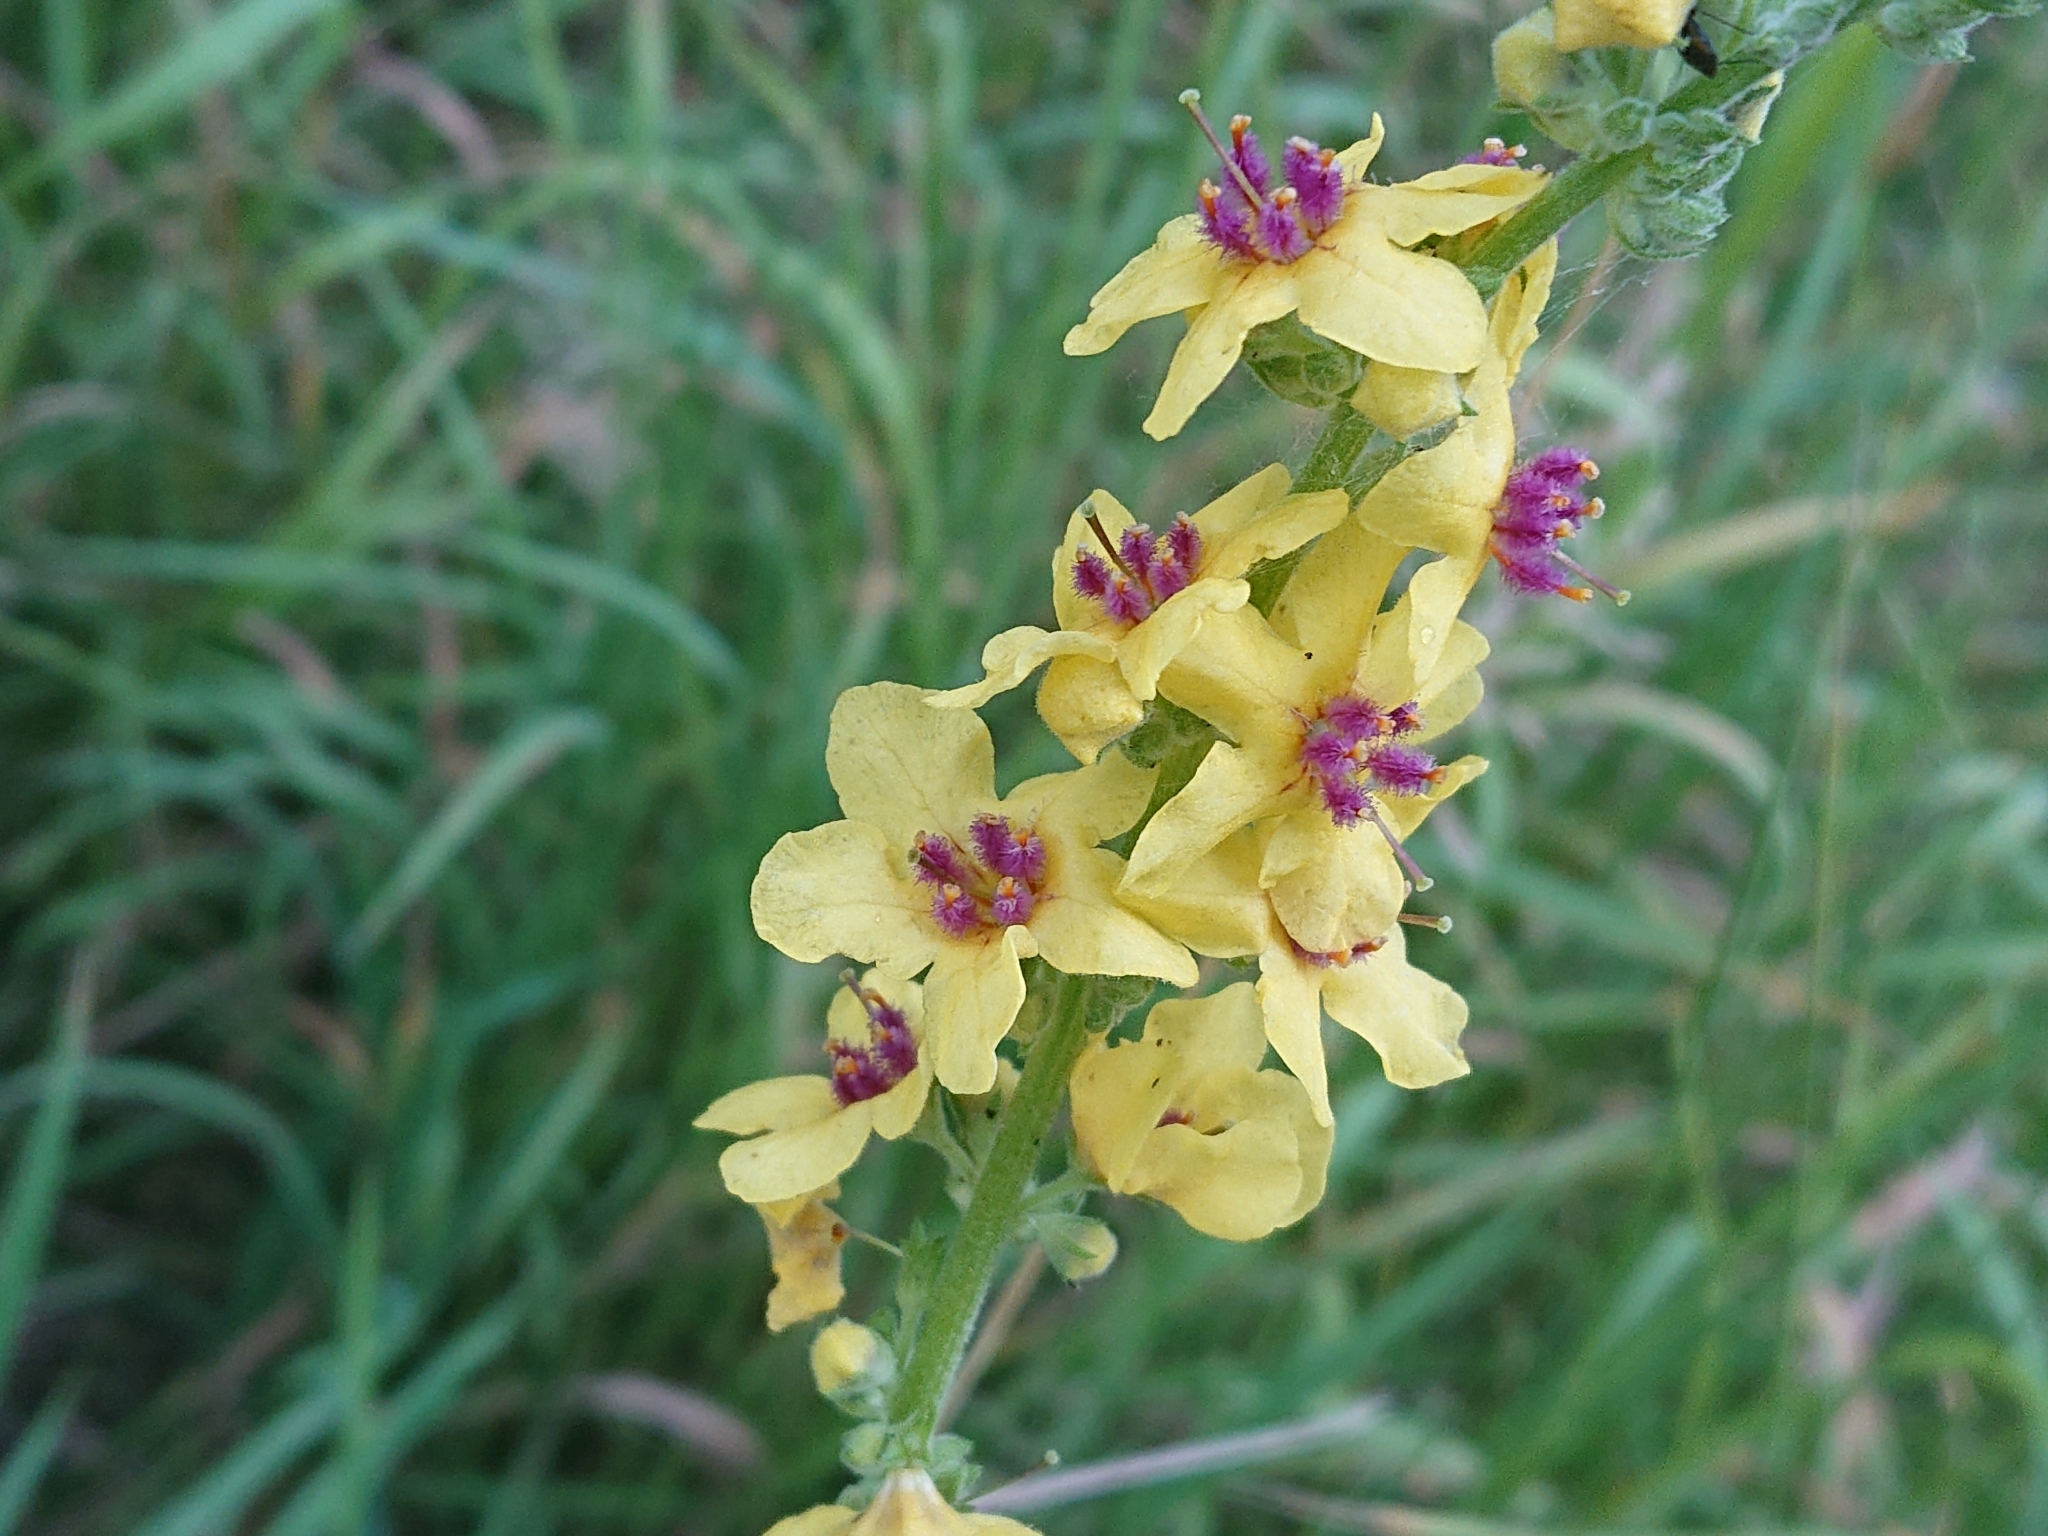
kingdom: Plantae
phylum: Tracheophyta
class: Magnoliopsida
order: Lamiales
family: Scrophulariaceae
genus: Verbascum
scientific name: Verbascum nigrum
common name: Dark mullein
